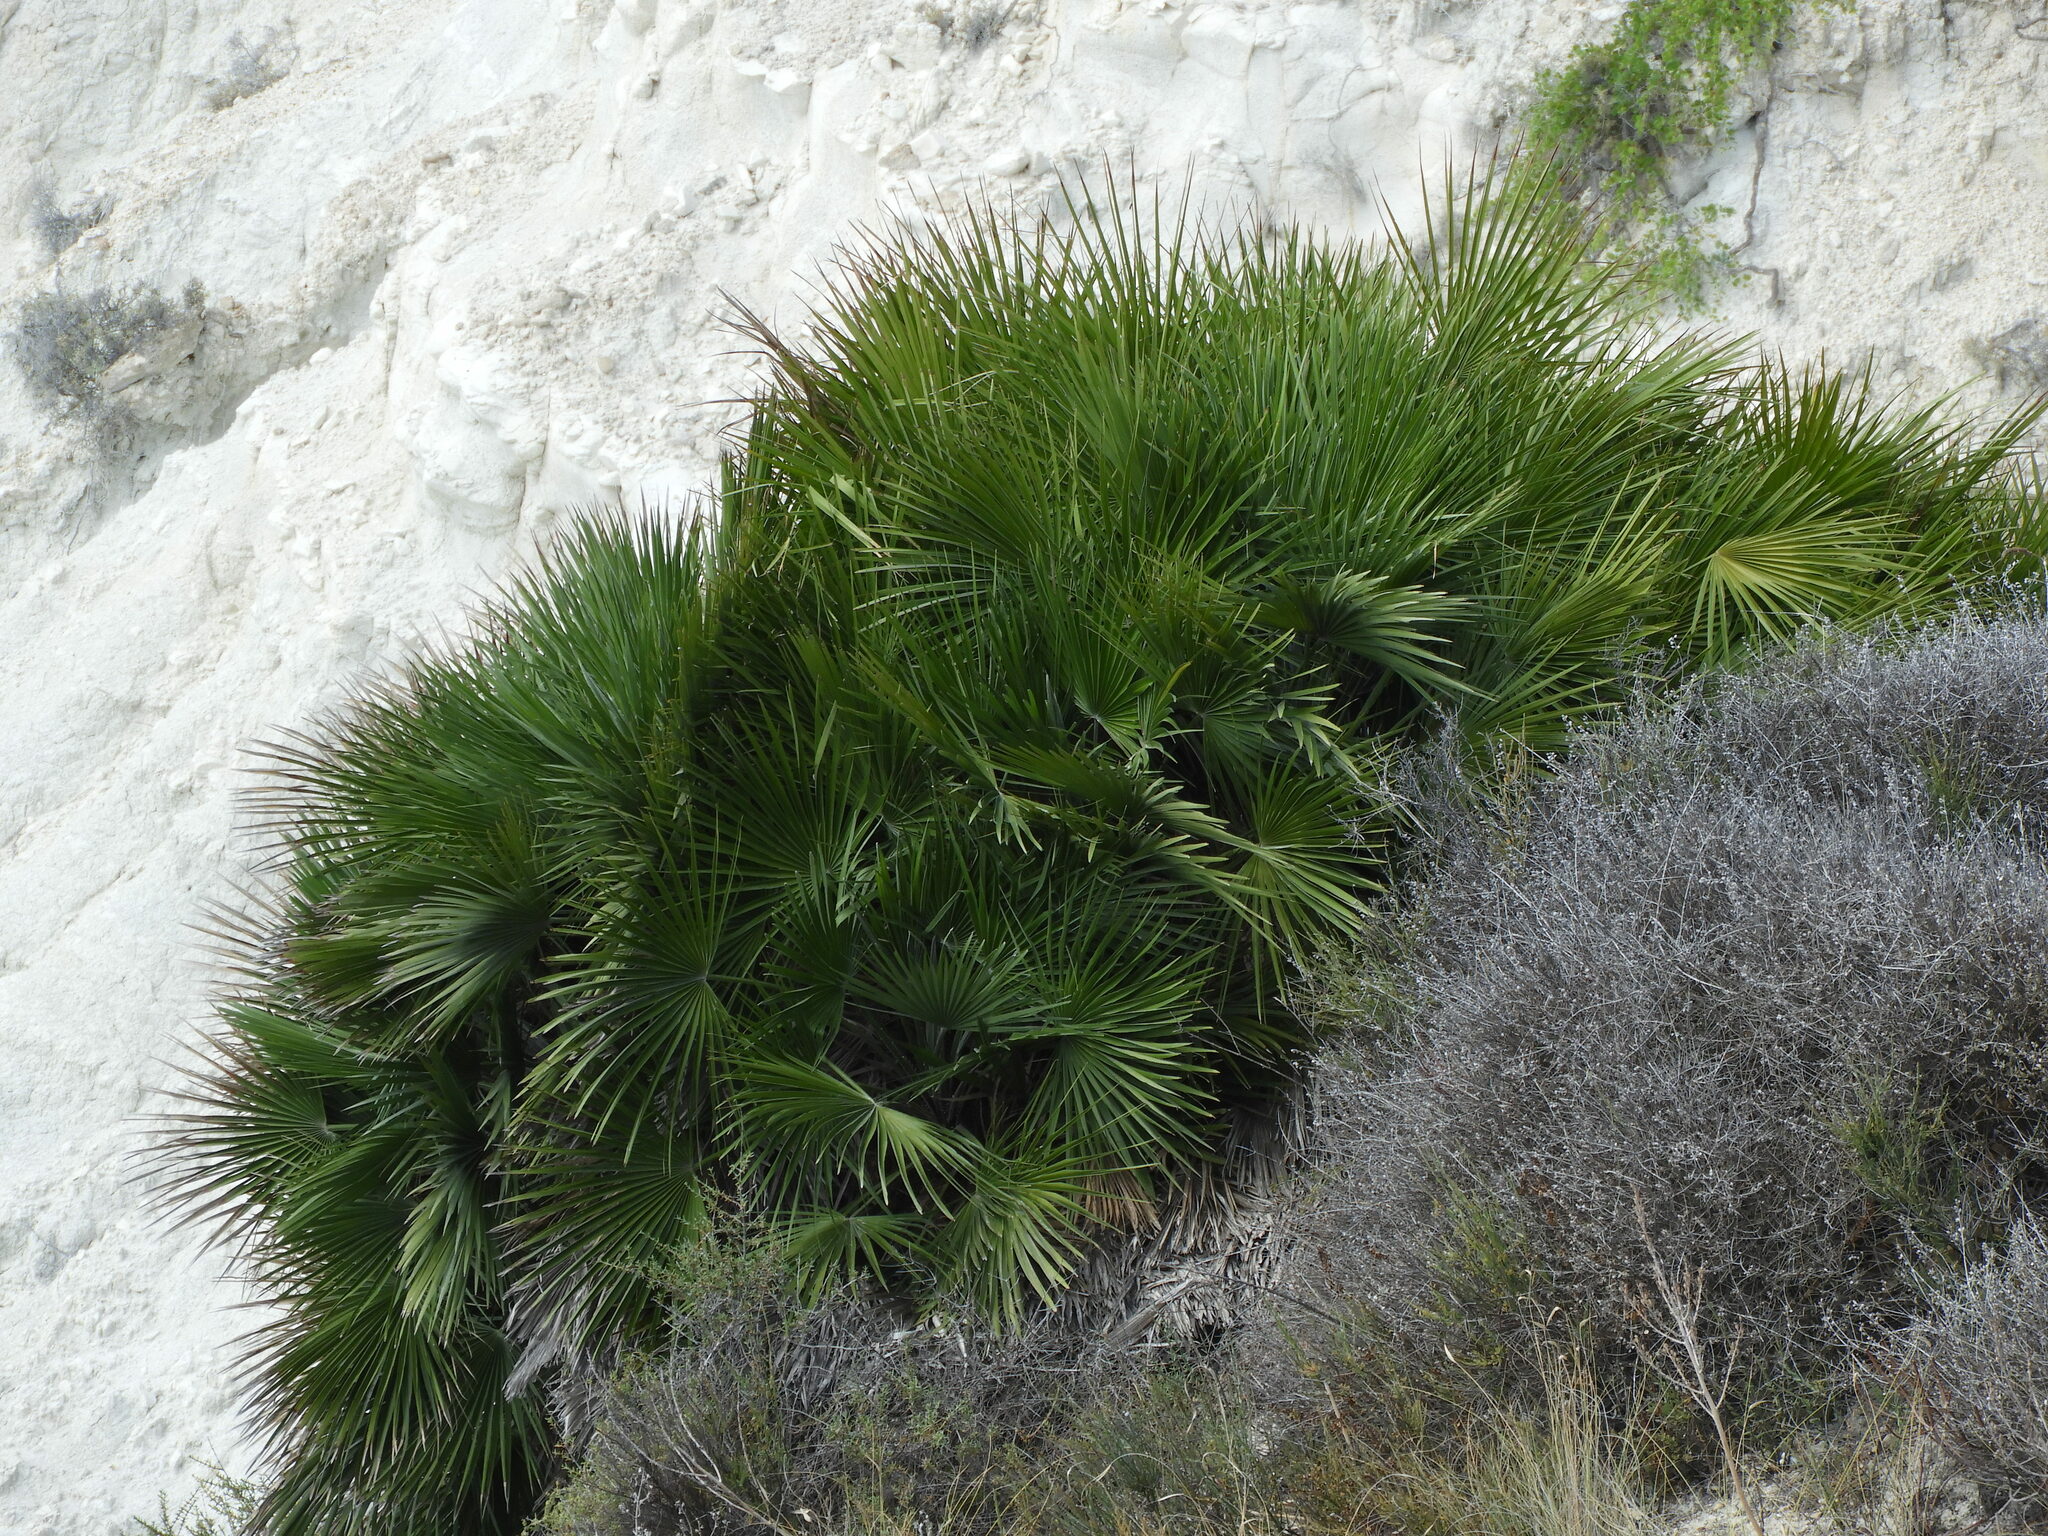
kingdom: Plantae
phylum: Tracheophyta
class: Liliopsida
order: Arecales
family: Arecaceae
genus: Chamaerops
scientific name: Chamaerops humilis
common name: Dwarf fan palm
